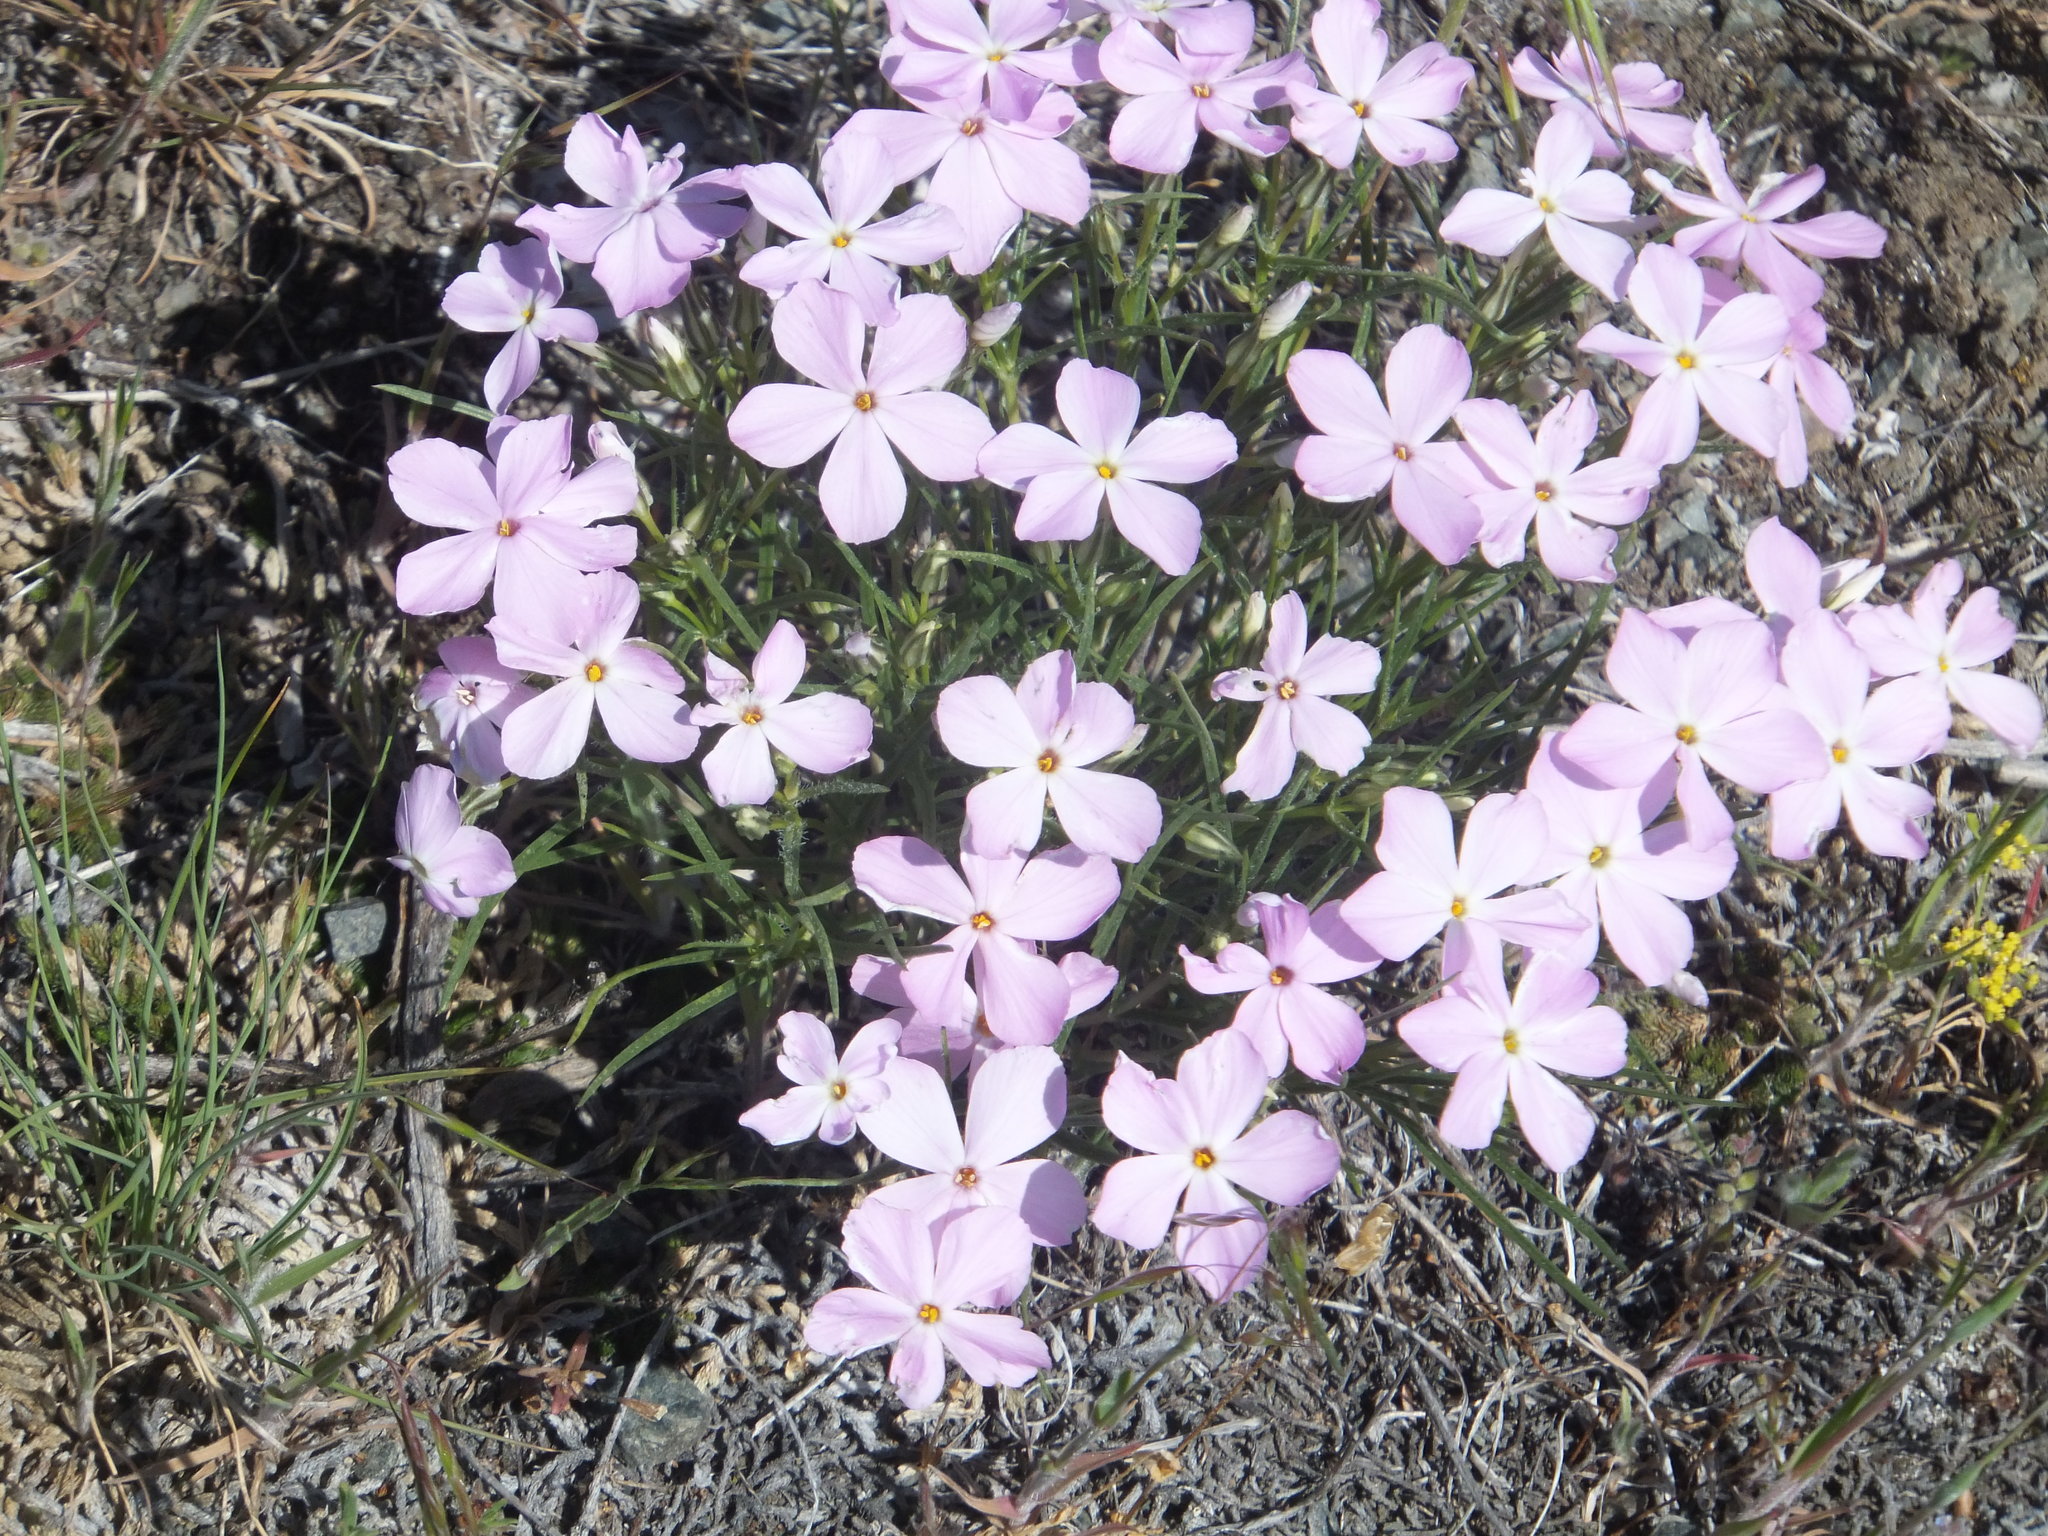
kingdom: Plantae
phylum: Tracheophyta
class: Magnoliopsida
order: Ericales
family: Polemoniaceae
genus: Phlox
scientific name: Phlox longifolia
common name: Longleaf phlox
